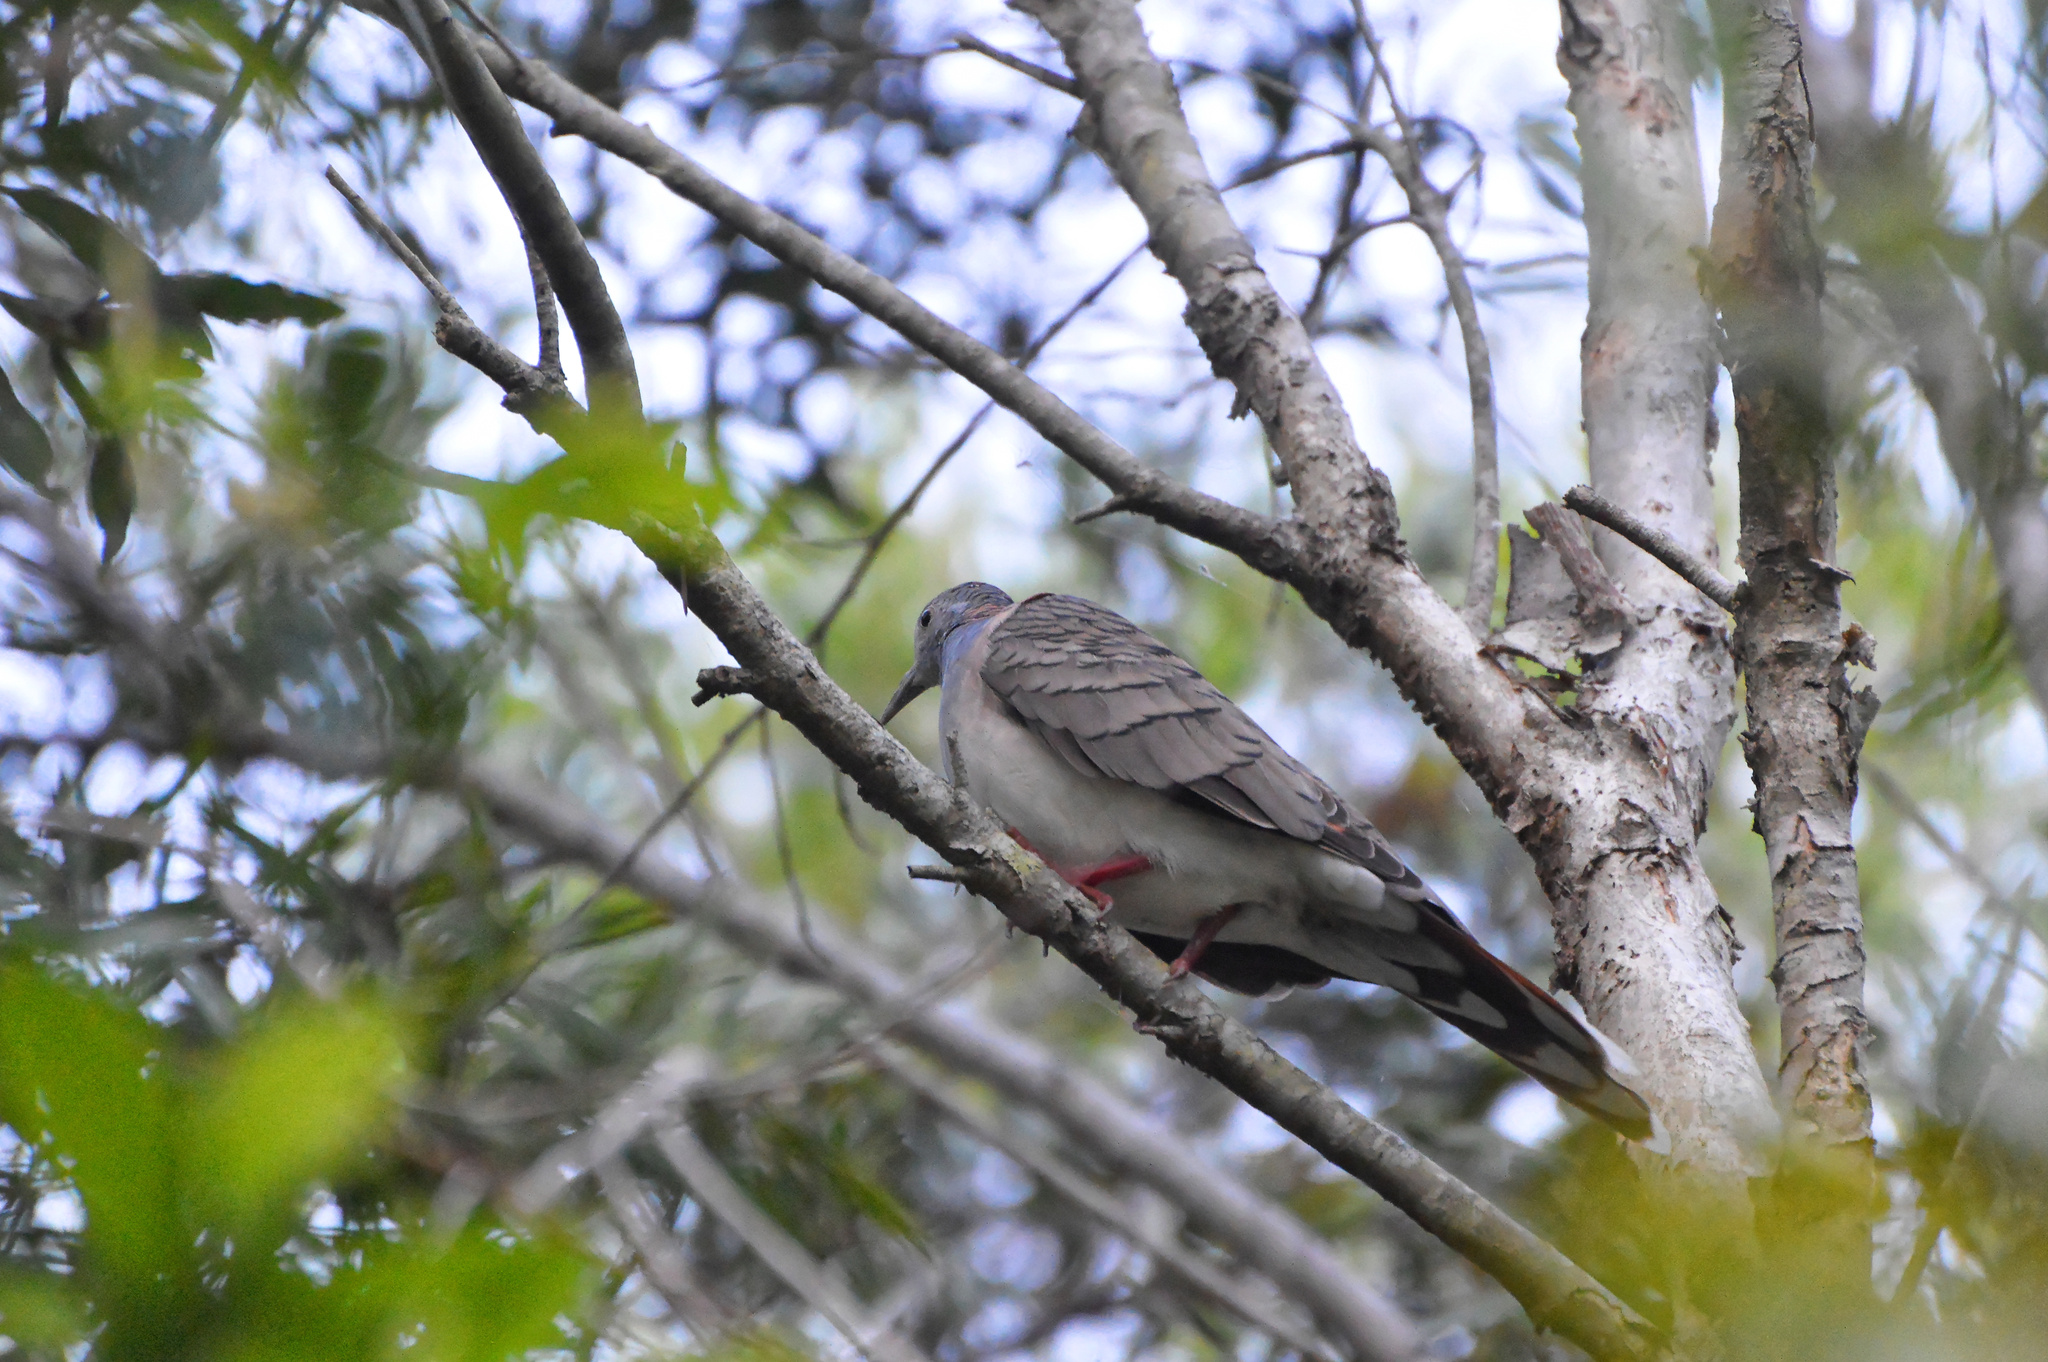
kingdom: Animalia
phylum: Chordata
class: Aves
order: Columbiformes
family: Columbidae
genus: Geopelia
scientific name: Geopelia humeralis
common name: Bar-shouldered dove
